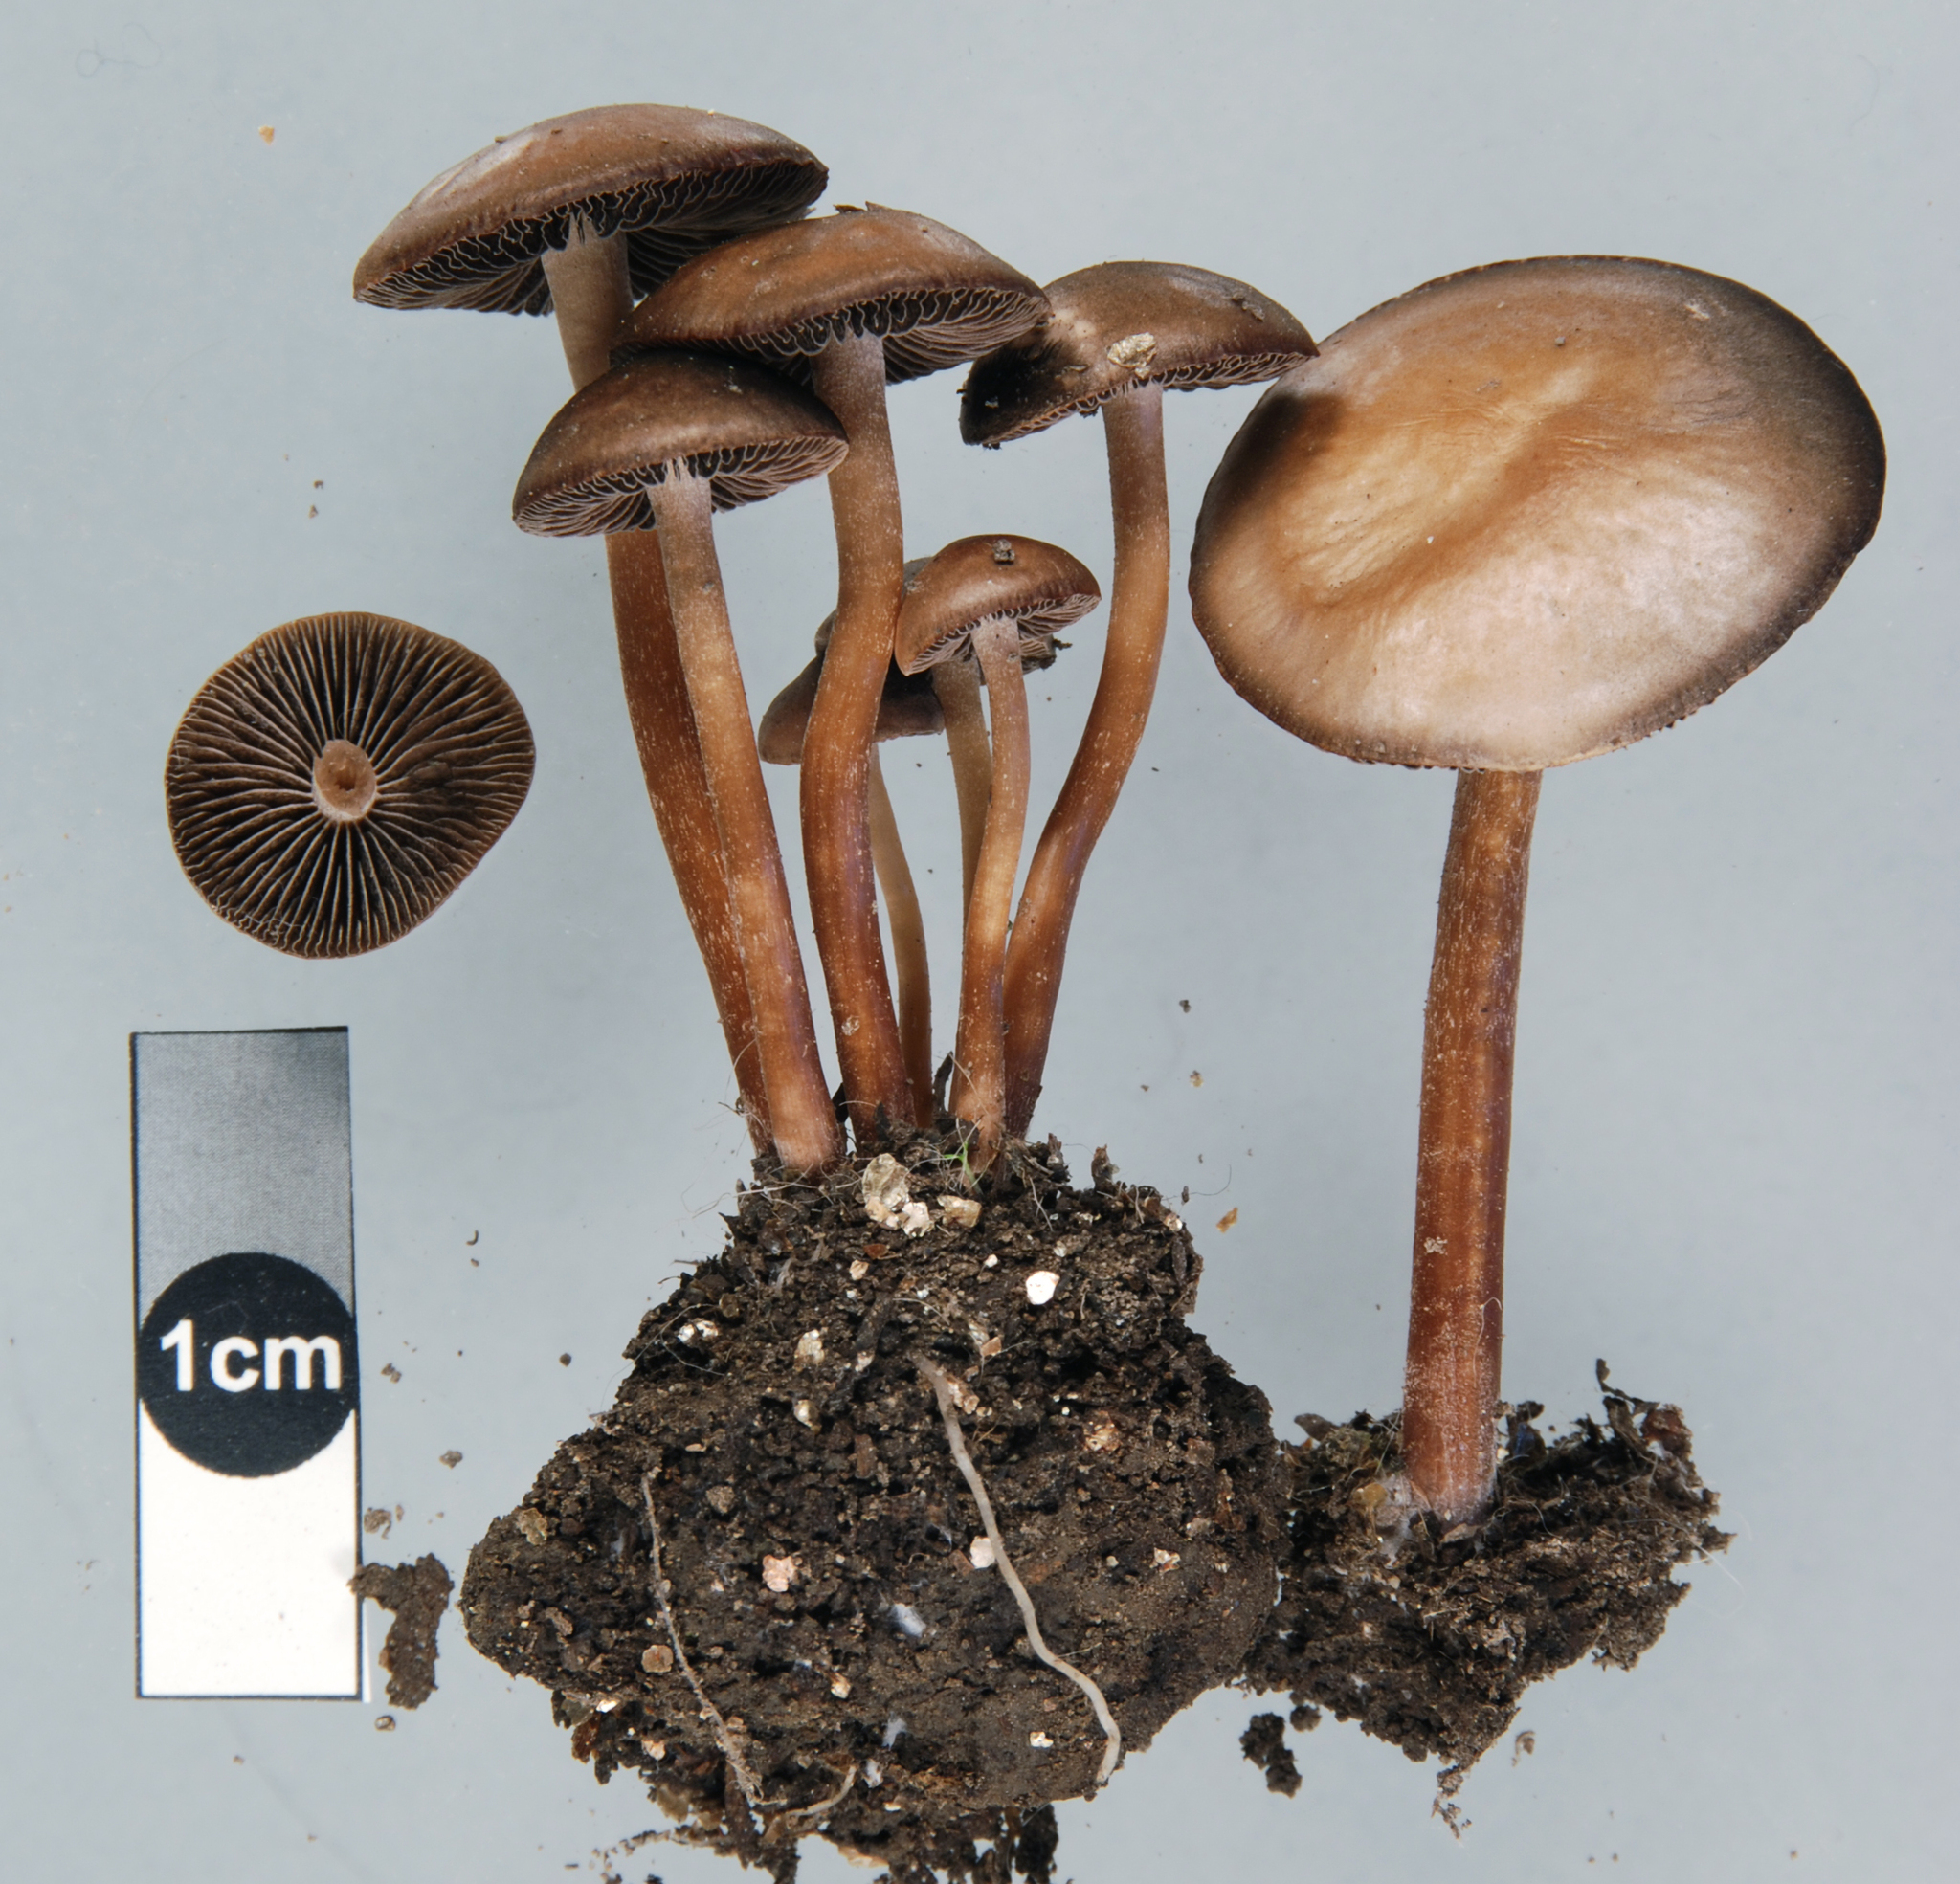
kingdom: Fungi
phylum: Basidiomycota
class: Agaricomycetes
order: Agaricales
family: Bolbitiaceae
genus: Panaeolus
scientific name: Panaeolus cinctulus
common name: Banded mottlegill
